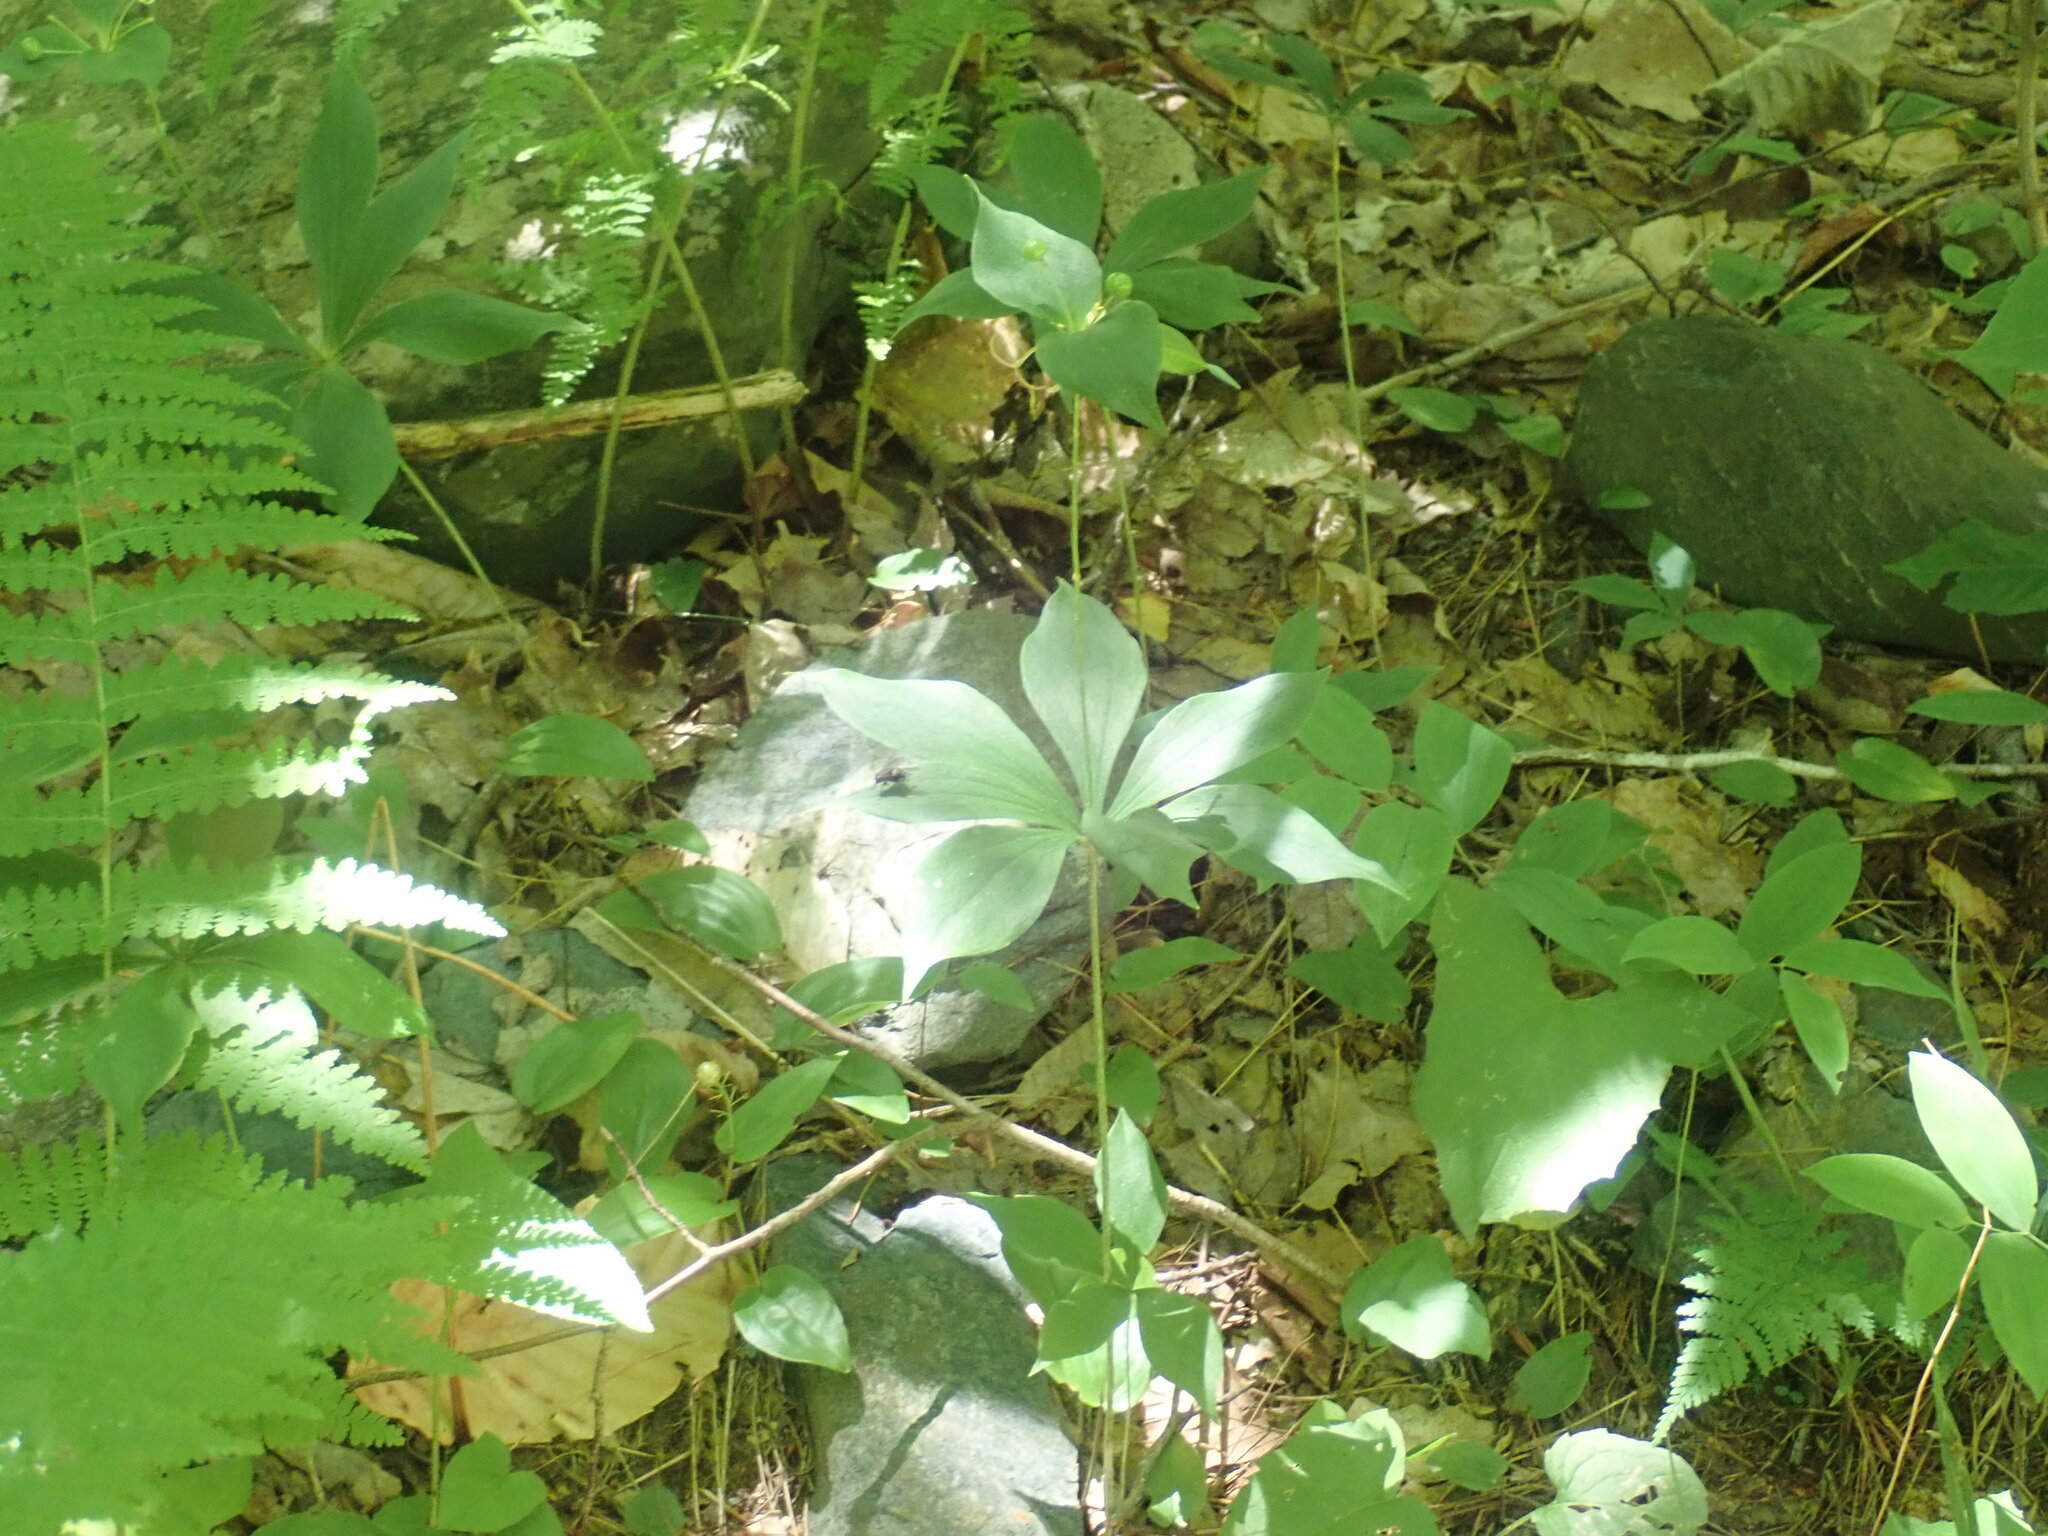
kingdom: Plantae
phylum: Tracheophyta
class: Liliopsida
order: Liliales
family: Liliaceae
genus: Medeola
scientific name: Medeola virginiana
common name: Indian cucumber-root
